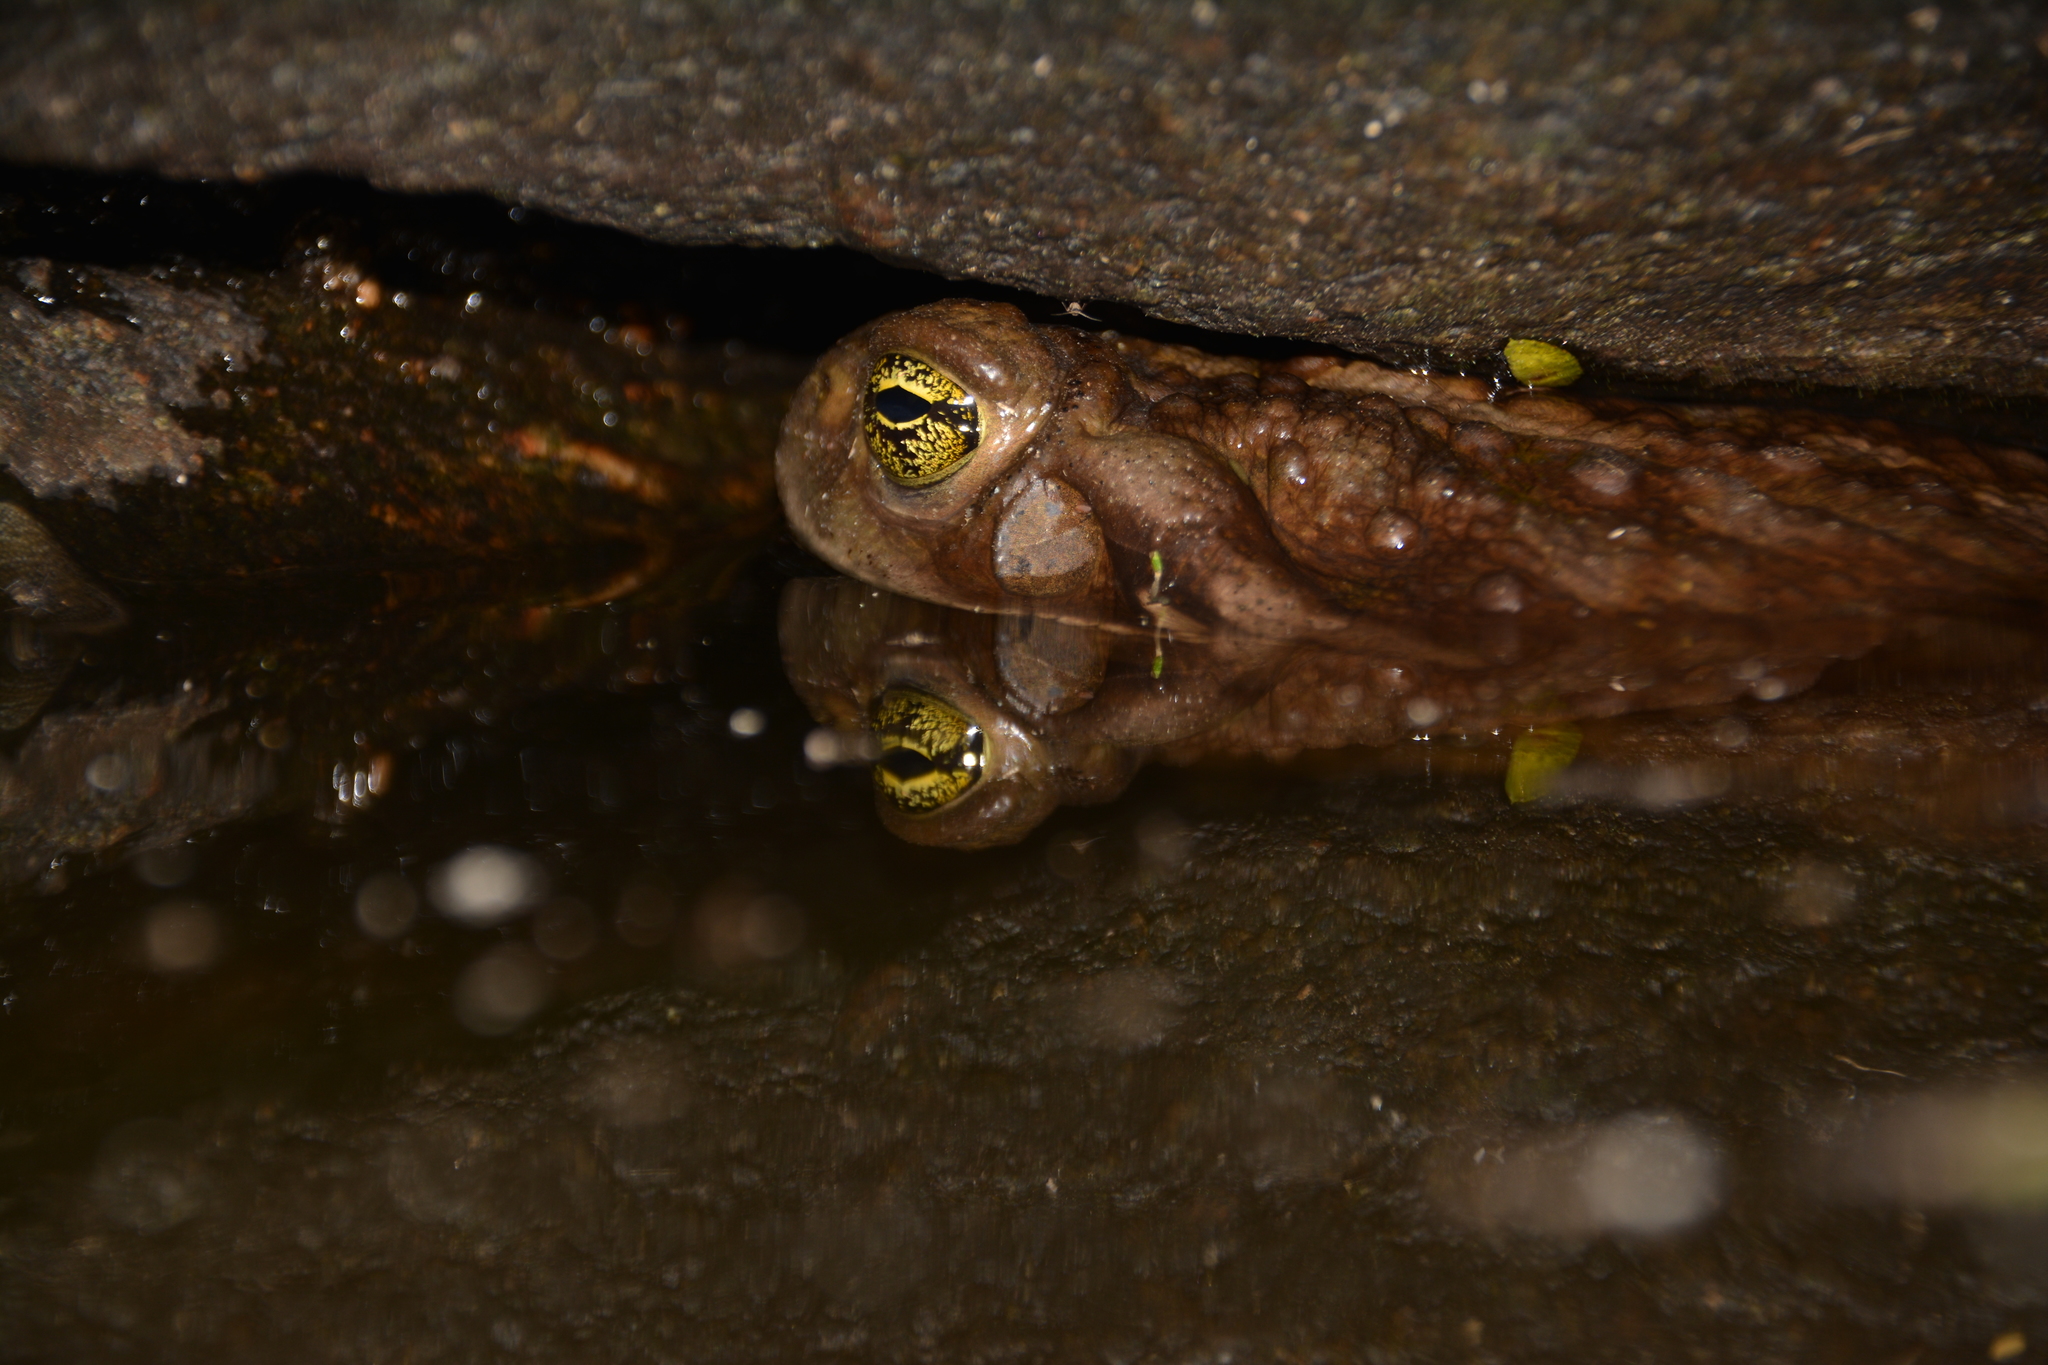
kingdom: Animalia
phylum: Chordata
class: Amphibia
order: Anura
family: Bufonidae
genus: Rhinella
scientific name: Rhinella arenarum
